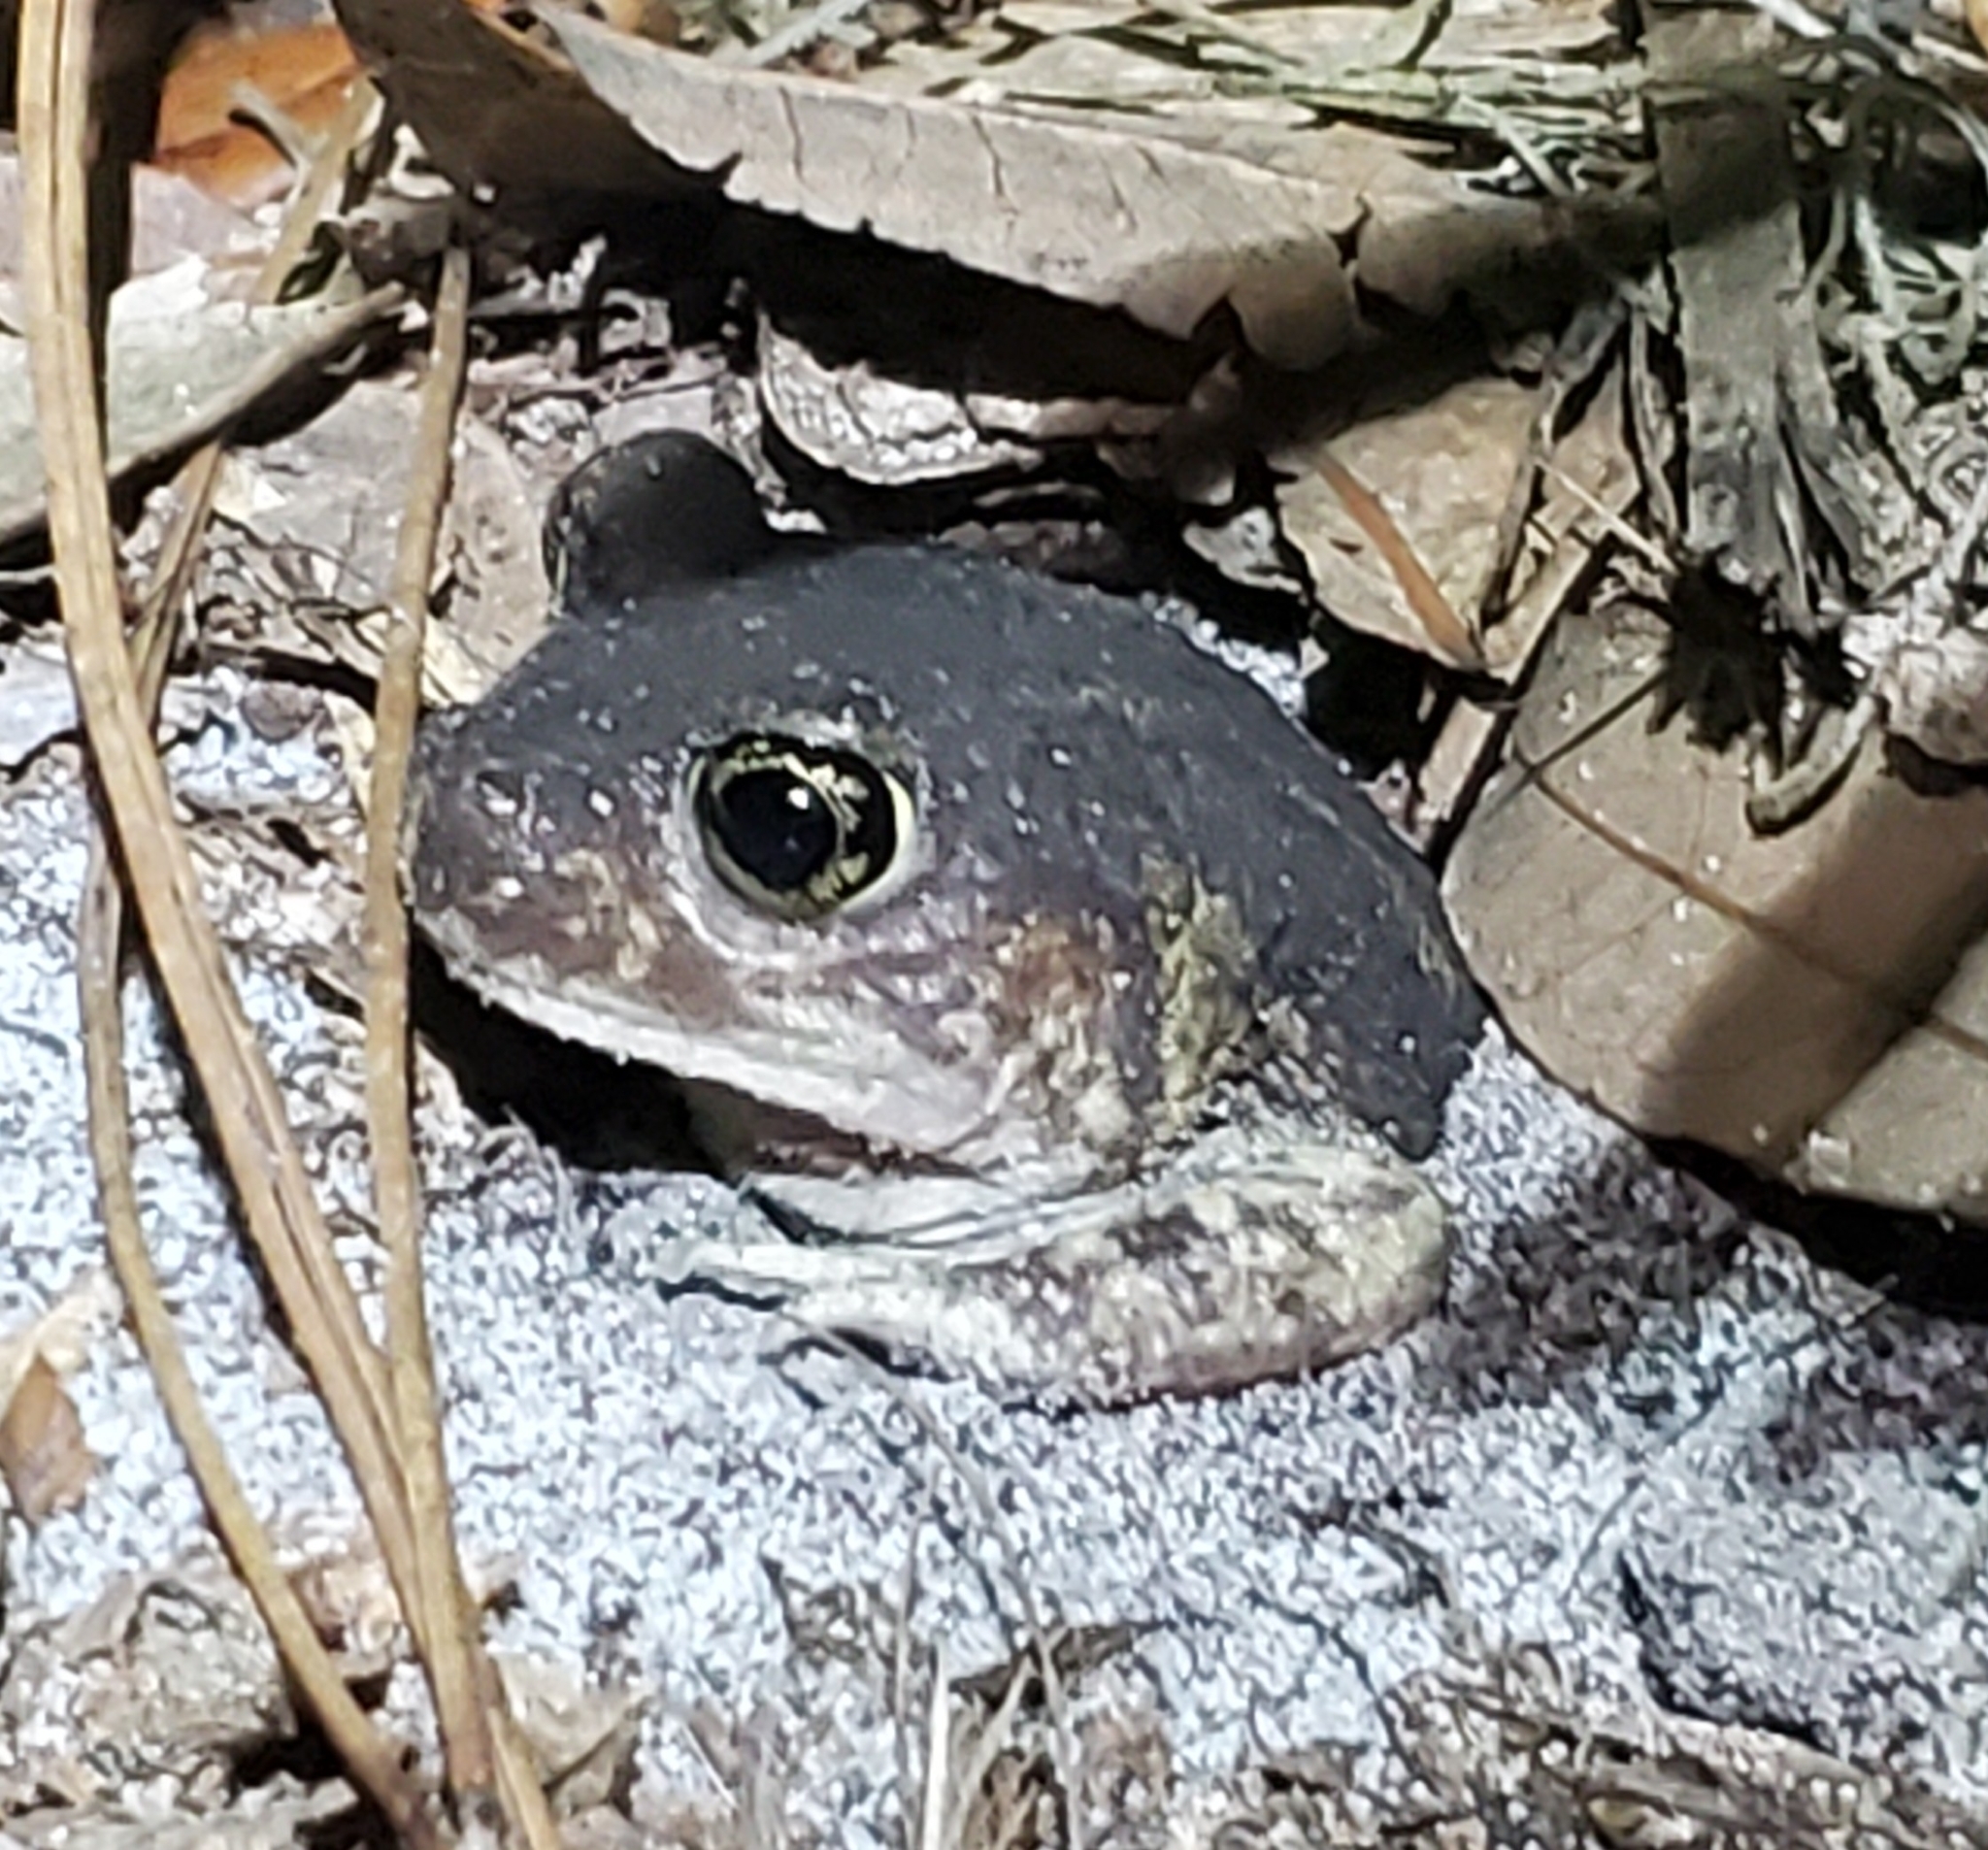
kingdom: Animalia
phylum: Chordata
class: Amphibia
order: Anura
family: Scaphiopodidae
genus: Scaphiopus
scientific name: Scaphiopus holbrookii
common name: Eastern spadefoot toad
